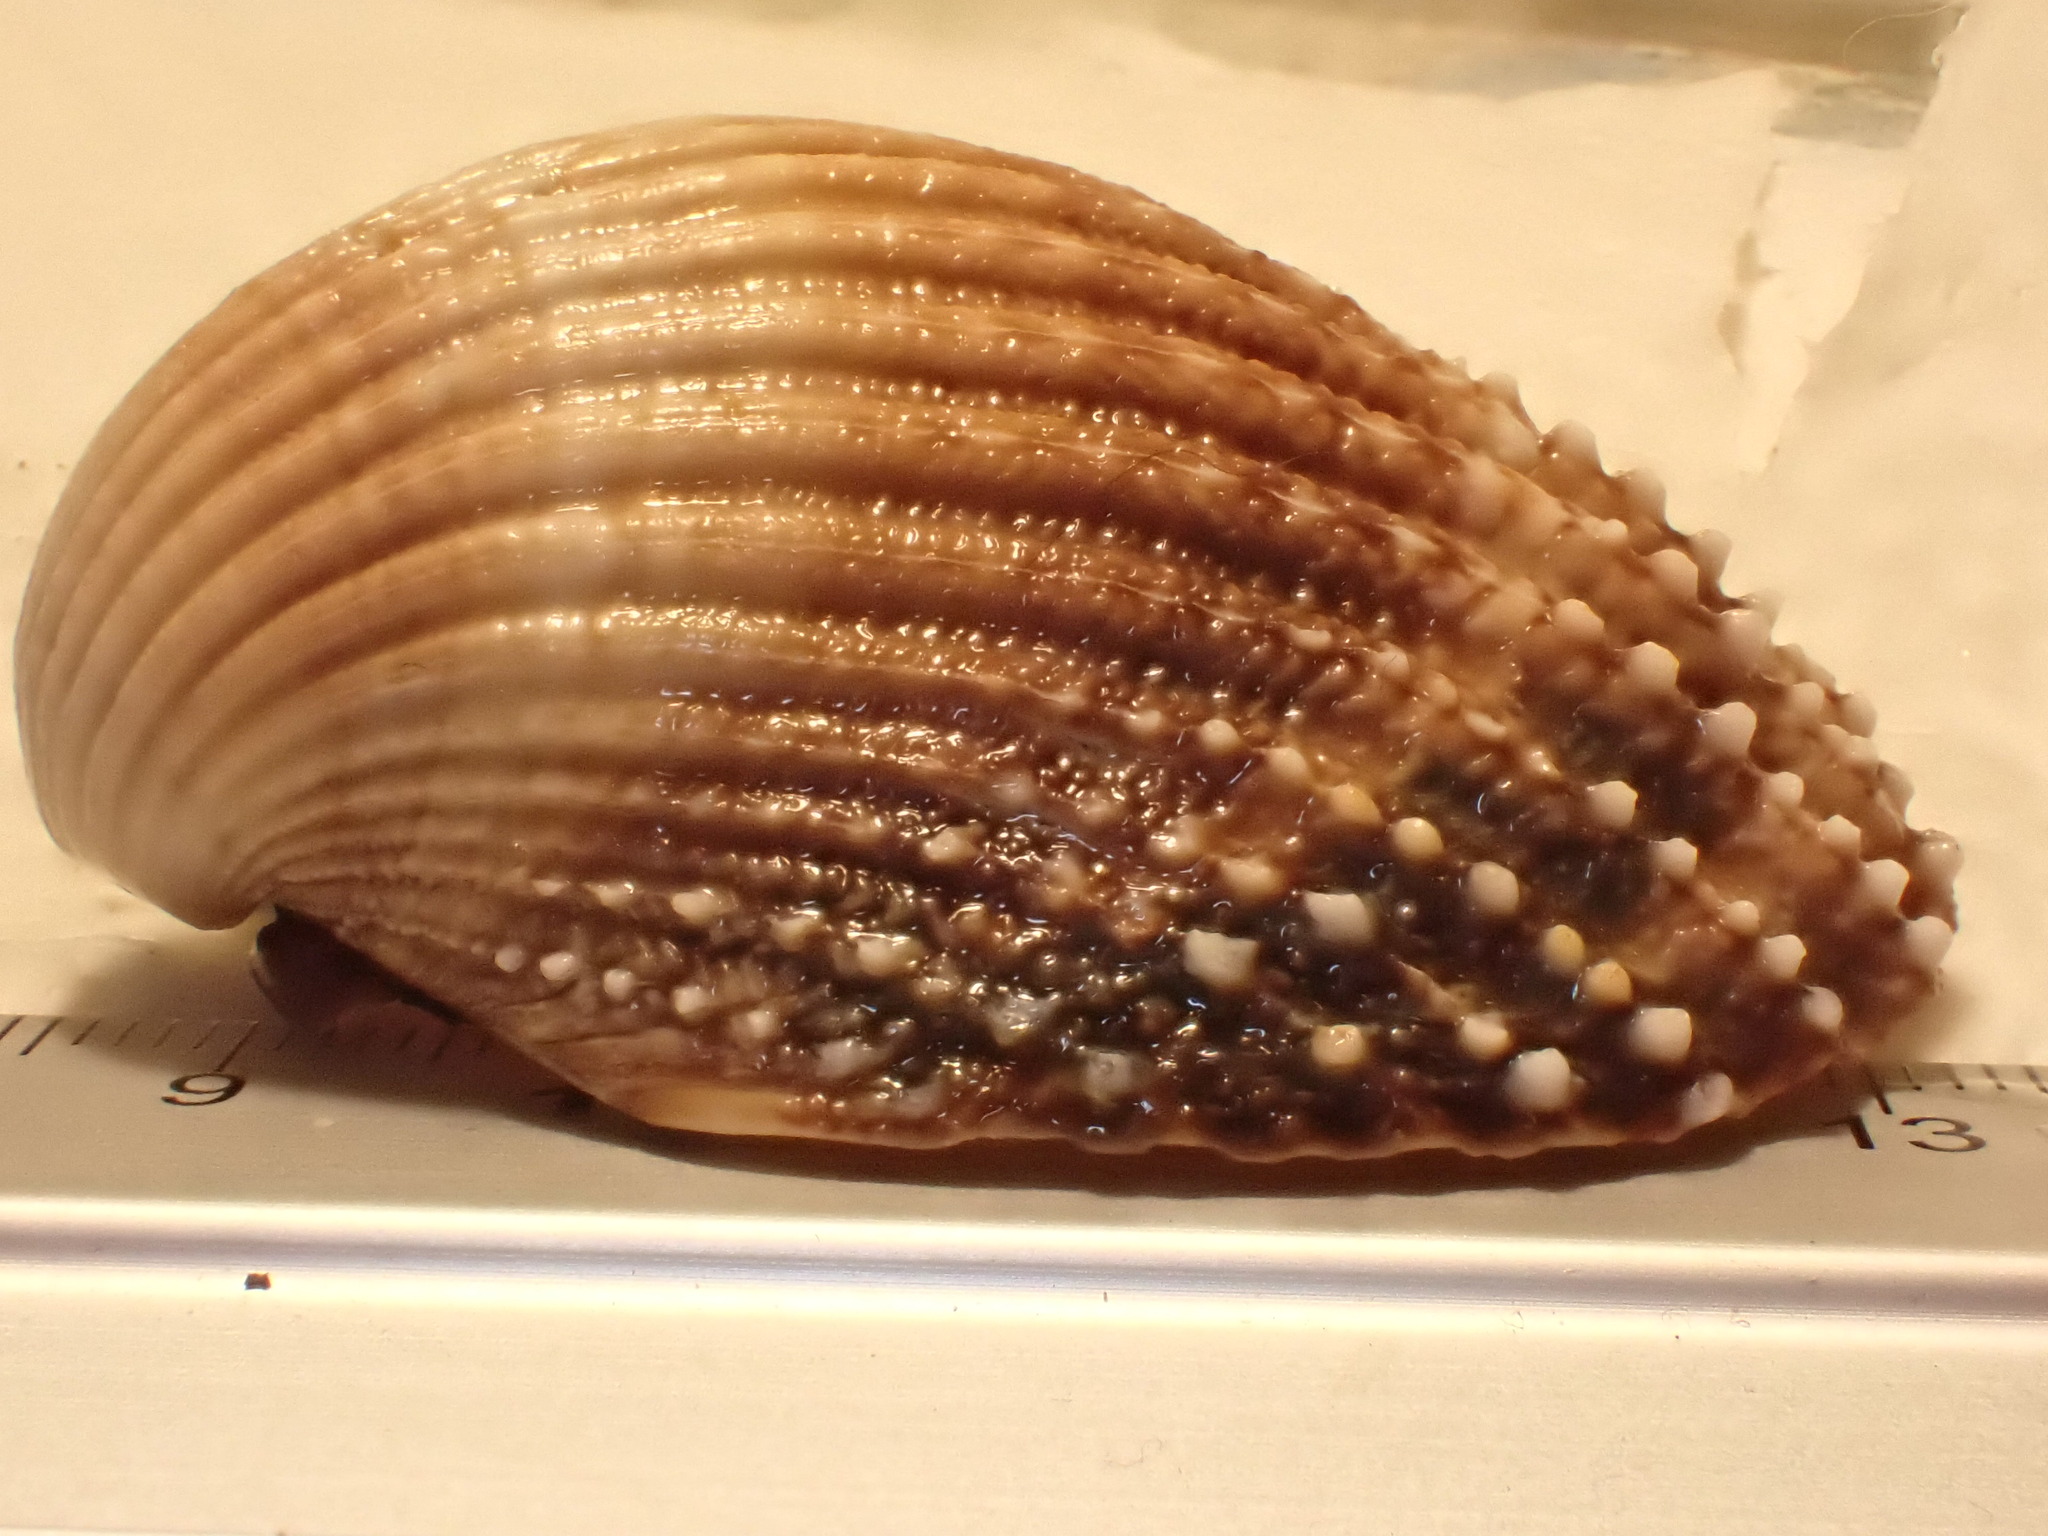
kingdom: Animalia
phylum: Mollusca
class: Bivalvia
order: Cardiida
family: Cardiidae
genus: Acanthocardia
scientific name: Acanthocardia echinata
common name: Prickly cockle
